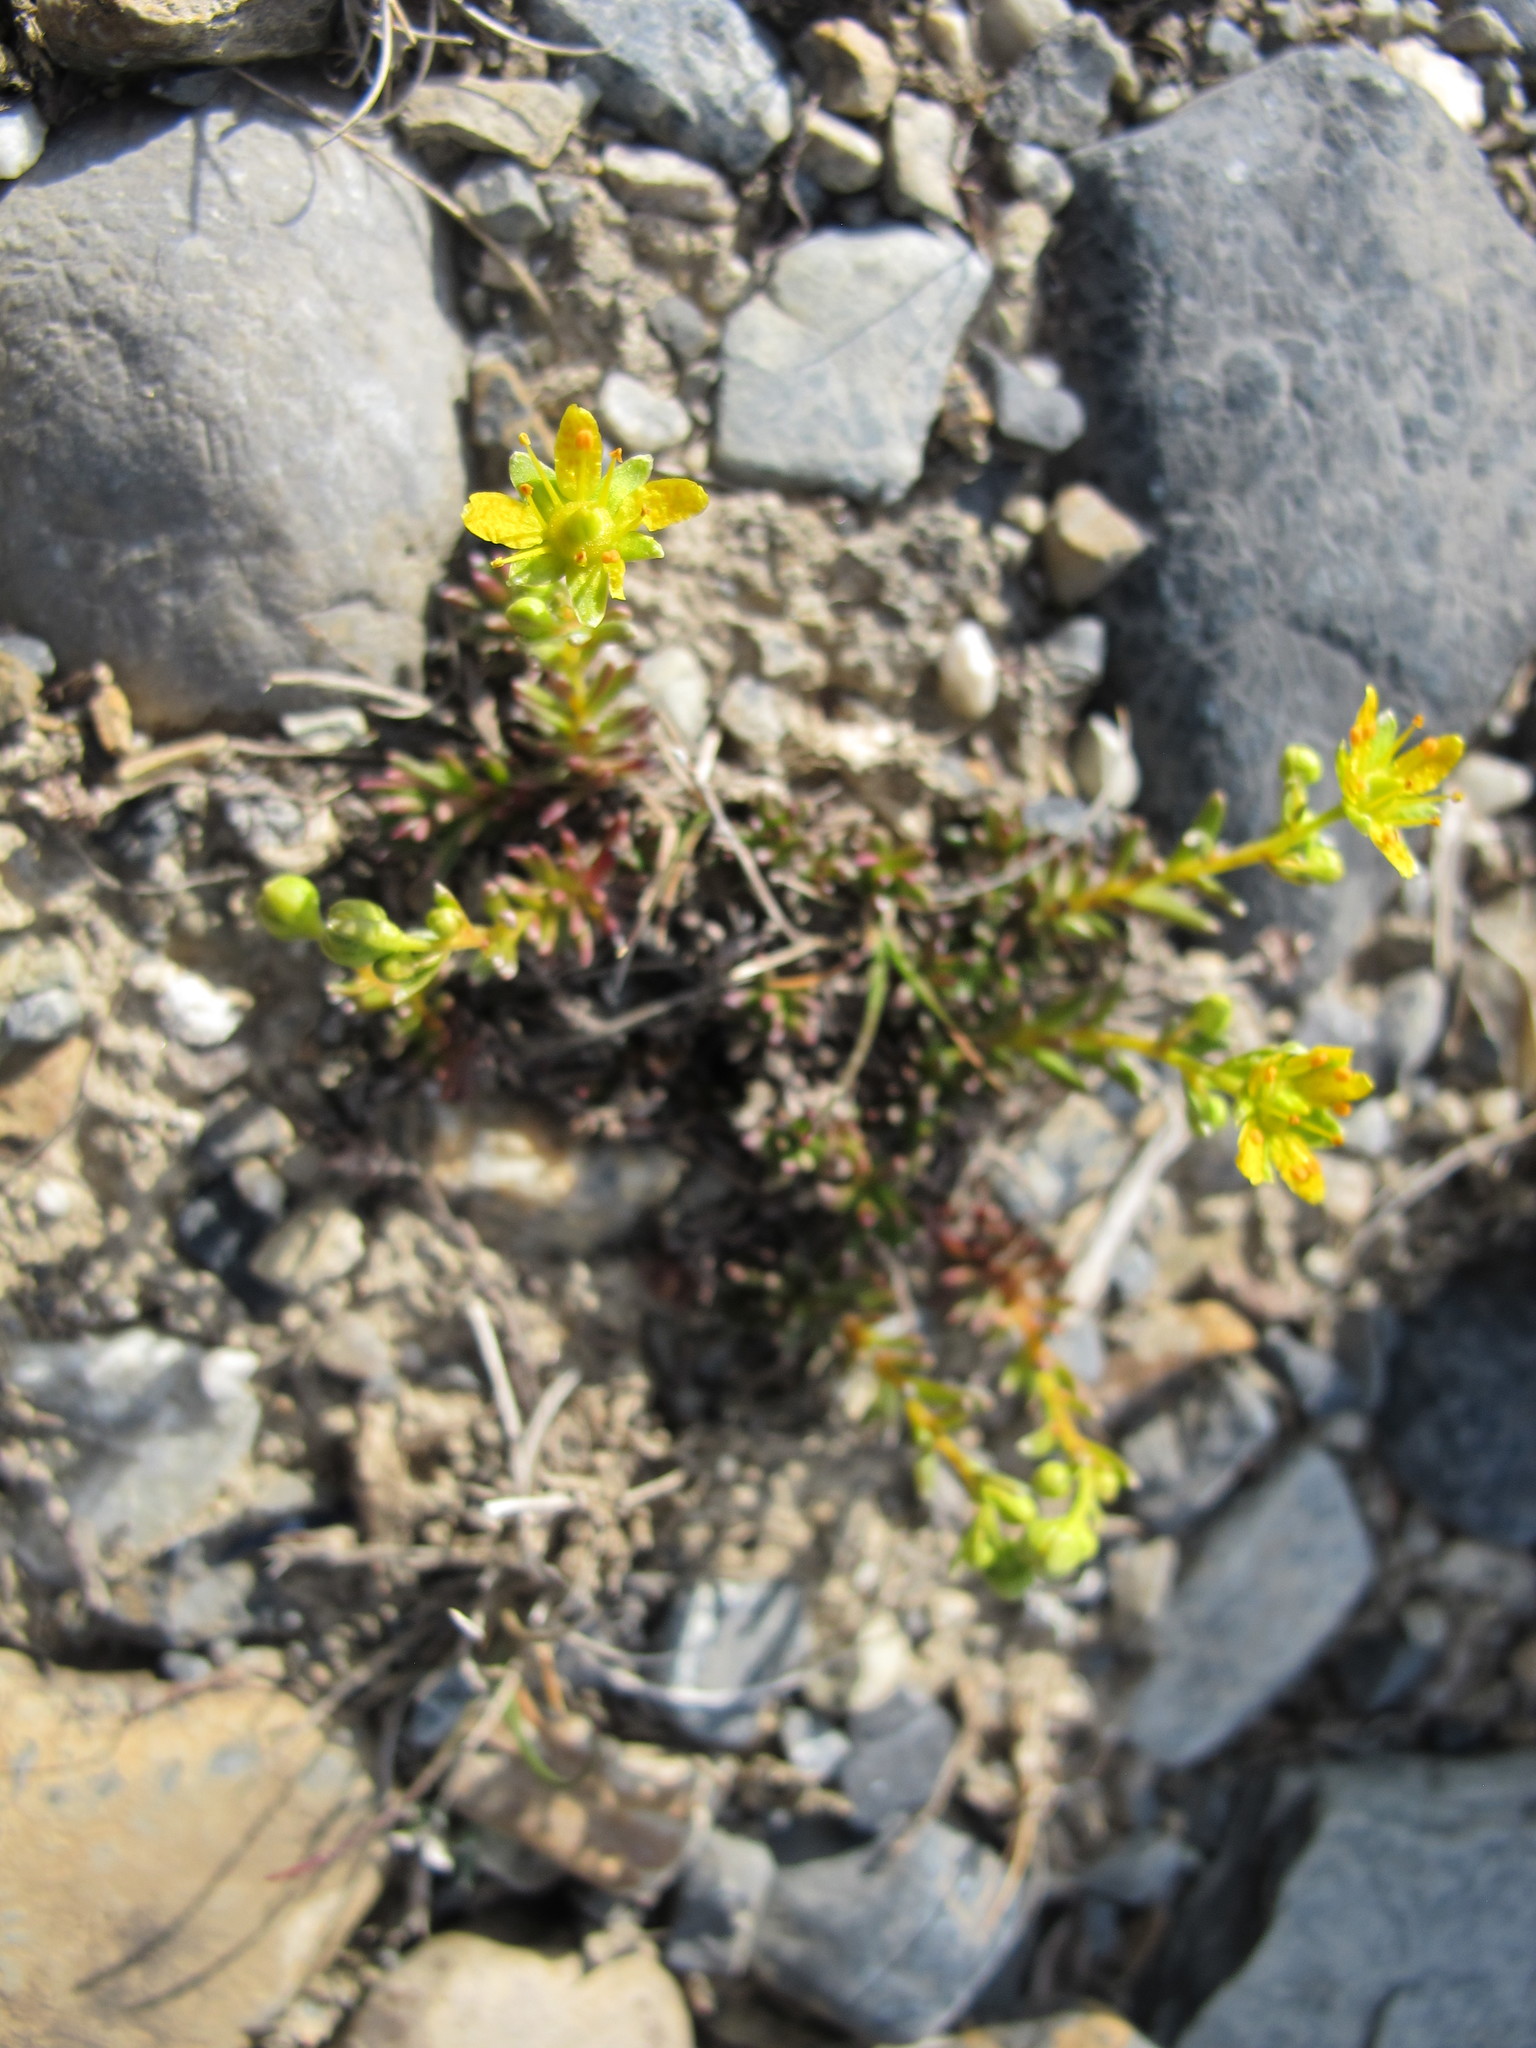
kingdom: Plantae
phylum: Tracheophyta
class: Magnoliopsida
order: Saxifragales
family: Saxifragaceae
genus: Saxifraga
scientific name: Saxifraga aizoides
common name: Yellow mountain saxifrage
